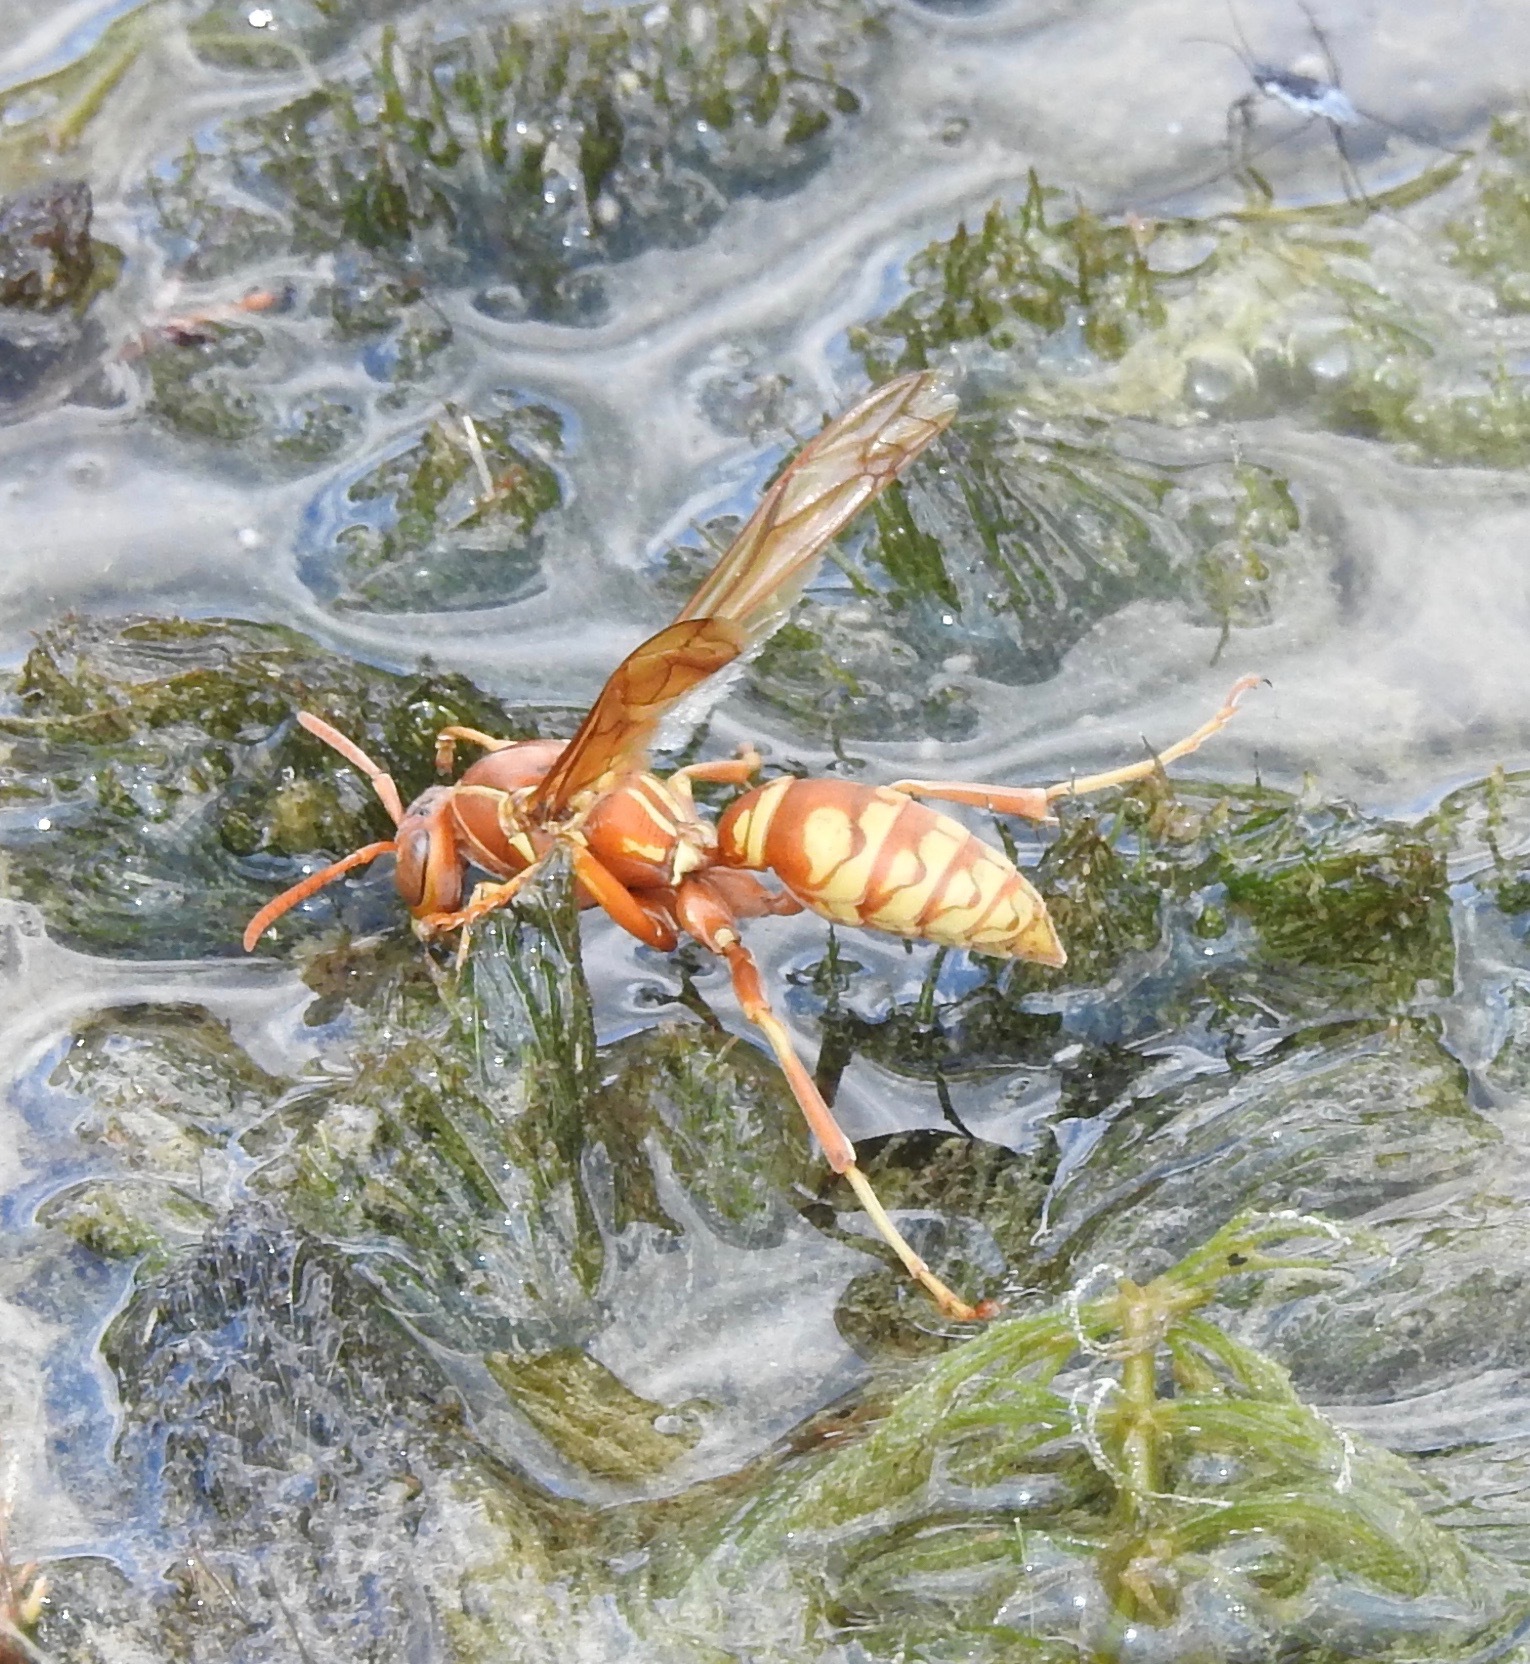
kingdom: Animalia
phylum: Arthropoda
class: Insecta
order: Hymenoptera
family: Eumenidae
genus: Polistes
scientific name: Polistes apachus
